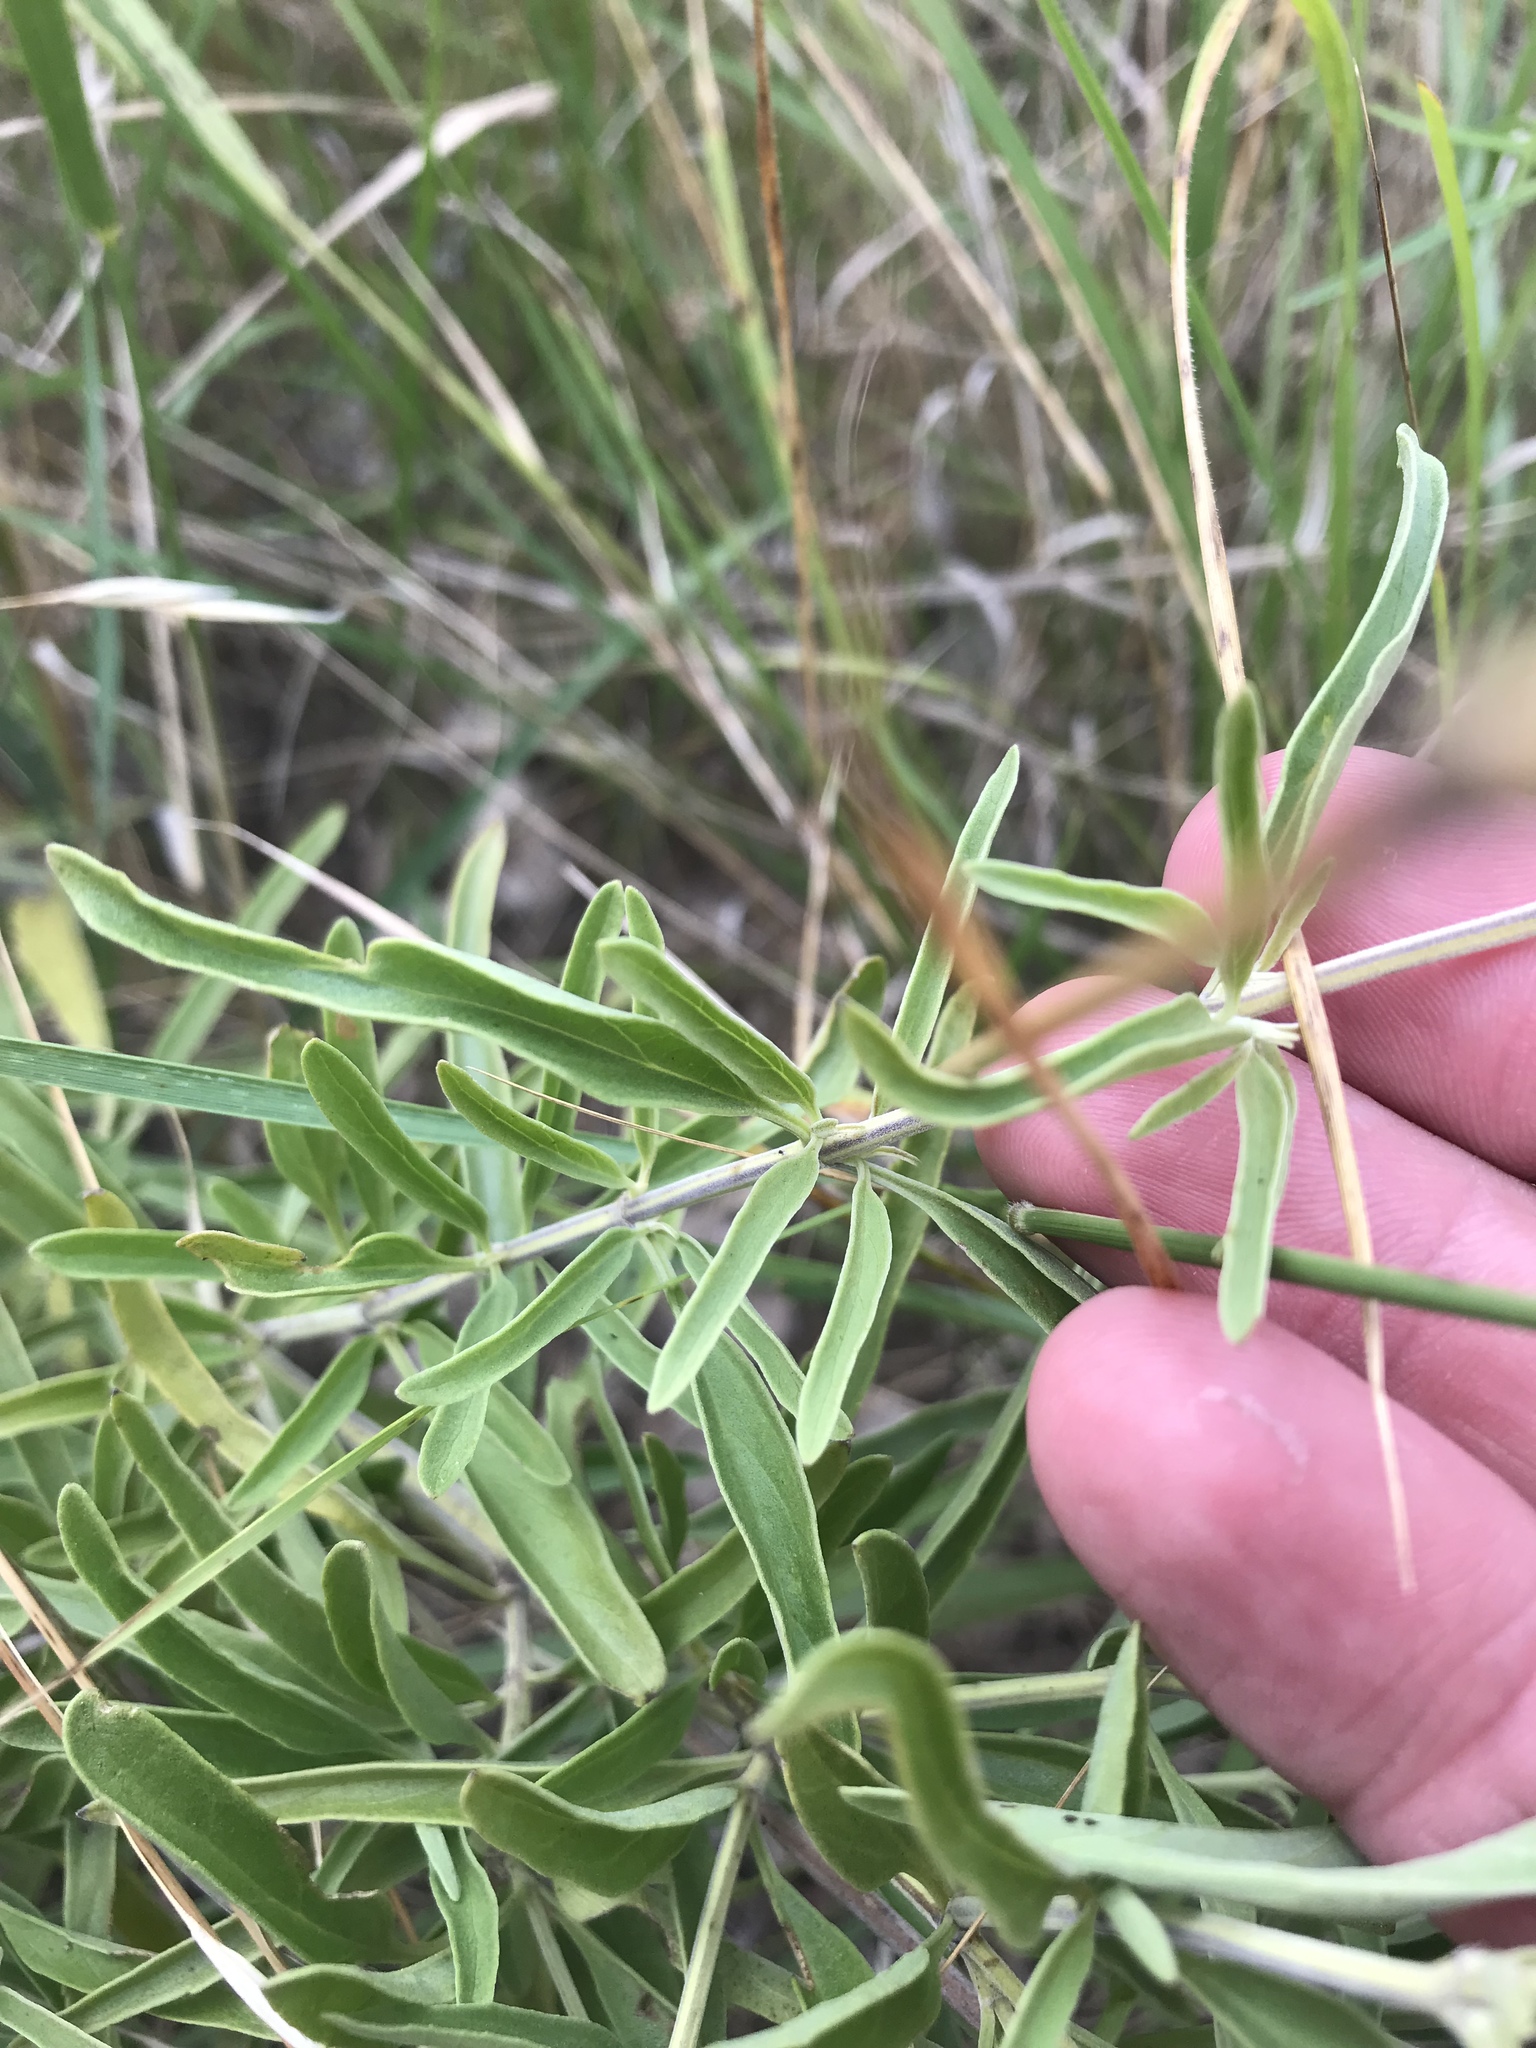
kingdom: Plantae
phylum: Tracheophyta
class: Magnoliopsida
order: Lamiales
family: Lamiaceae
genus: Salvia
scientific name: Salvia farinacea
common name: Mealy sage
